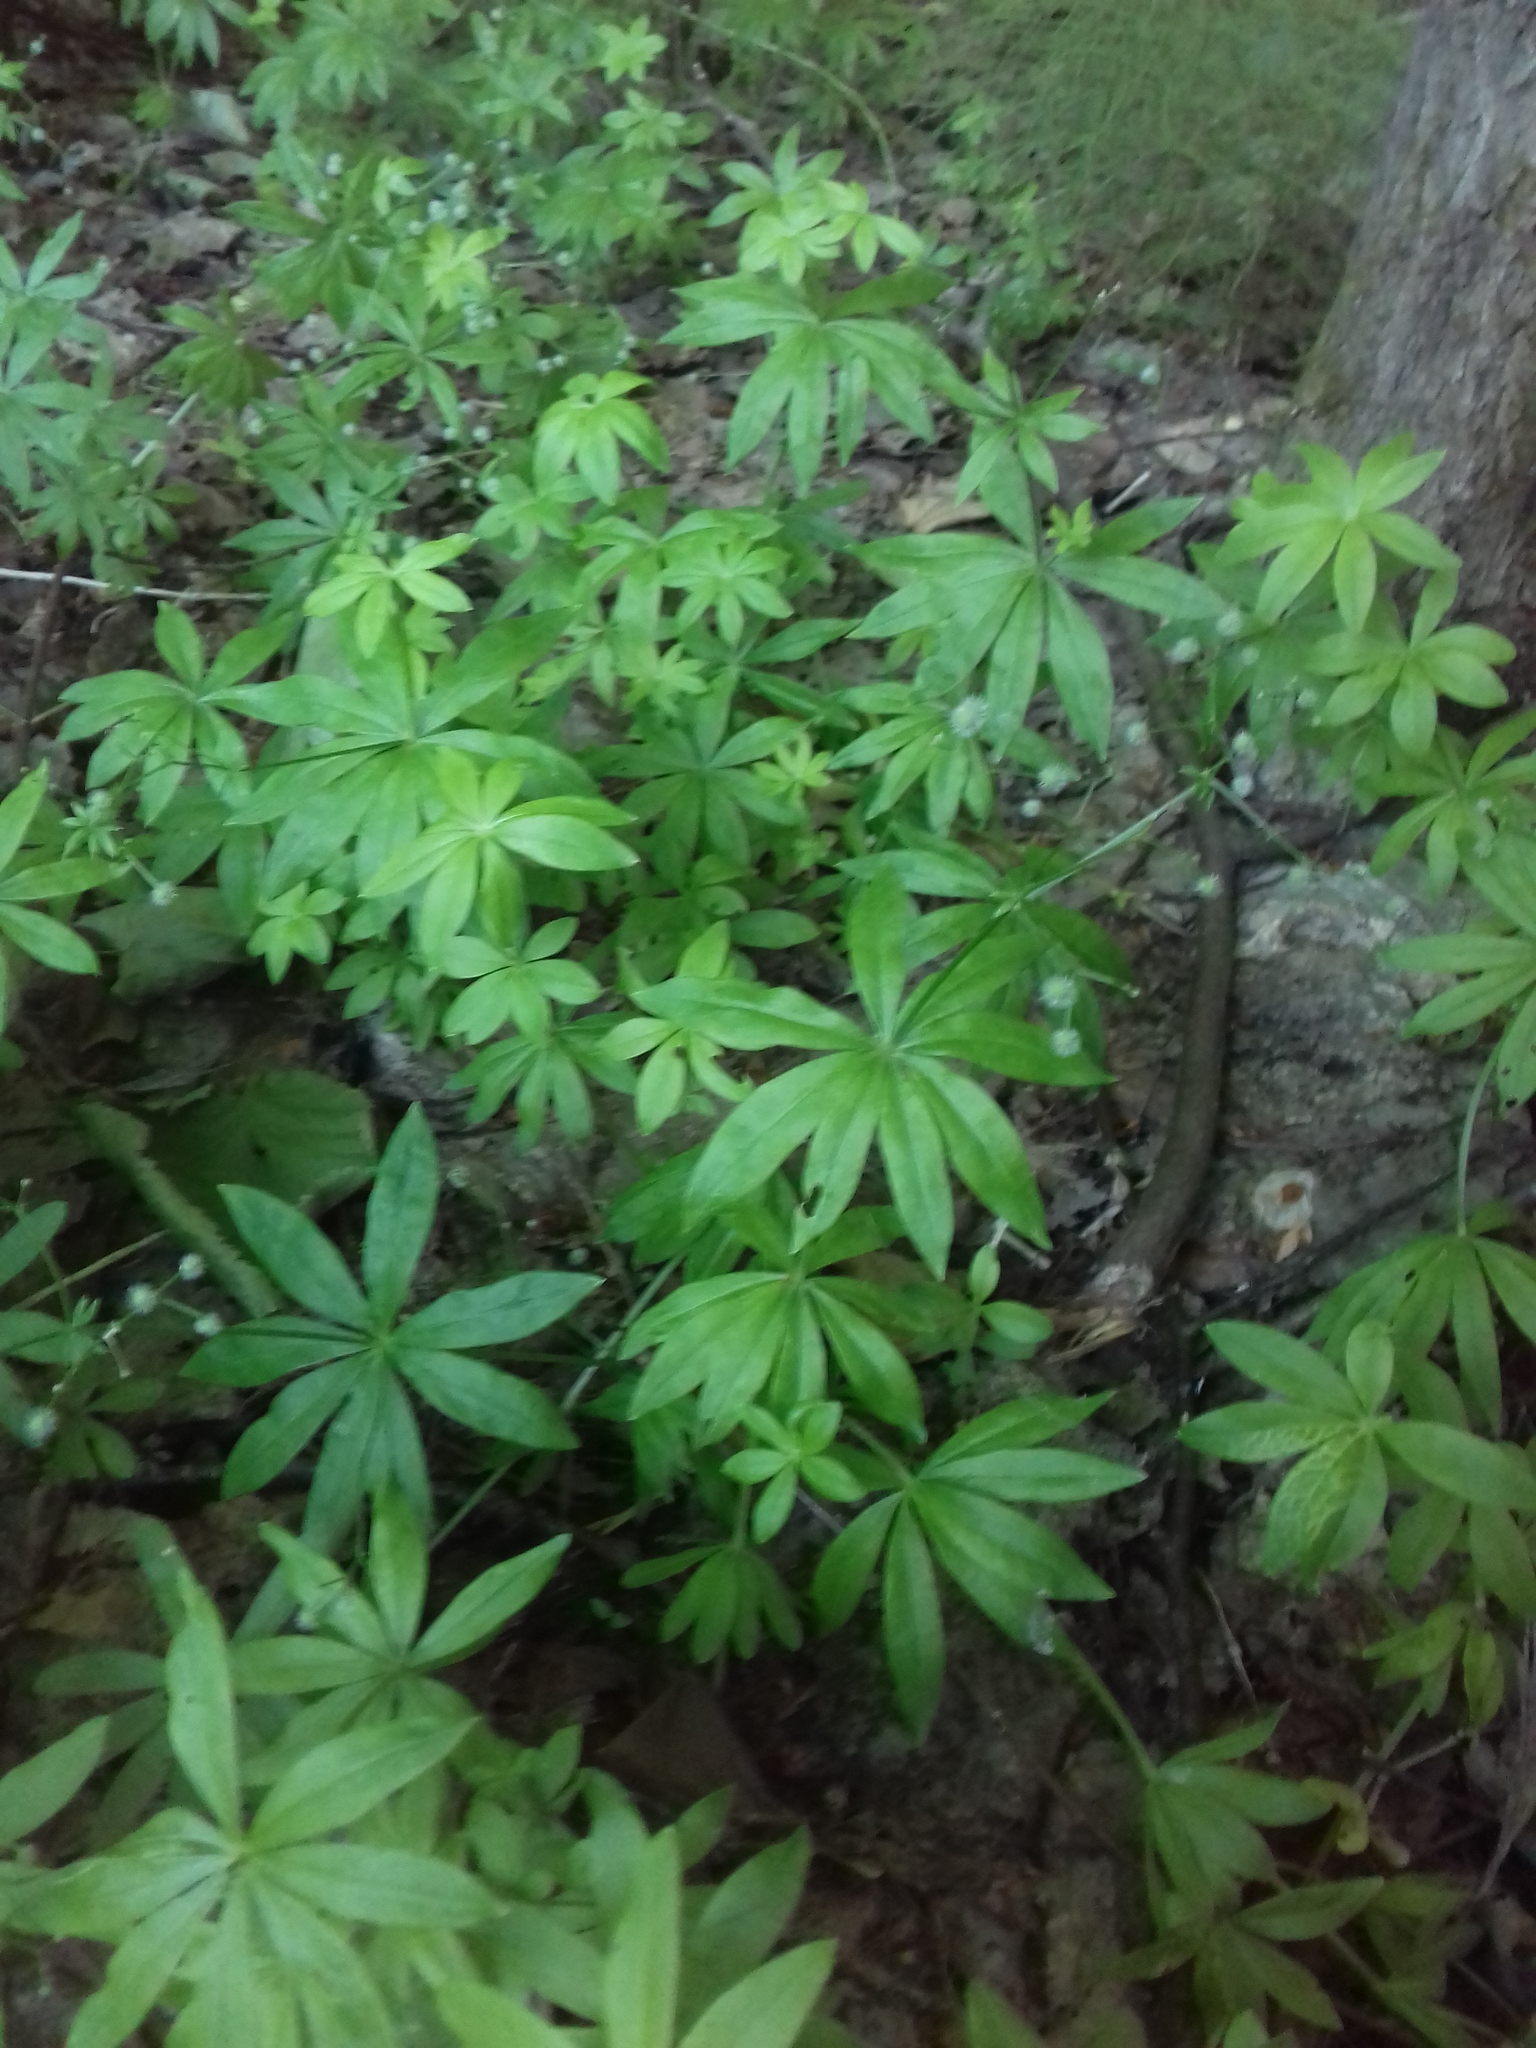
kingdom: Plantae
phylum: Tracheophyta
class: Magnoliopsida
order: Gentianales
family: Rubiaceae
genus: Galium
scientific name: Galium odoratum
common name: Sweet woodruff
